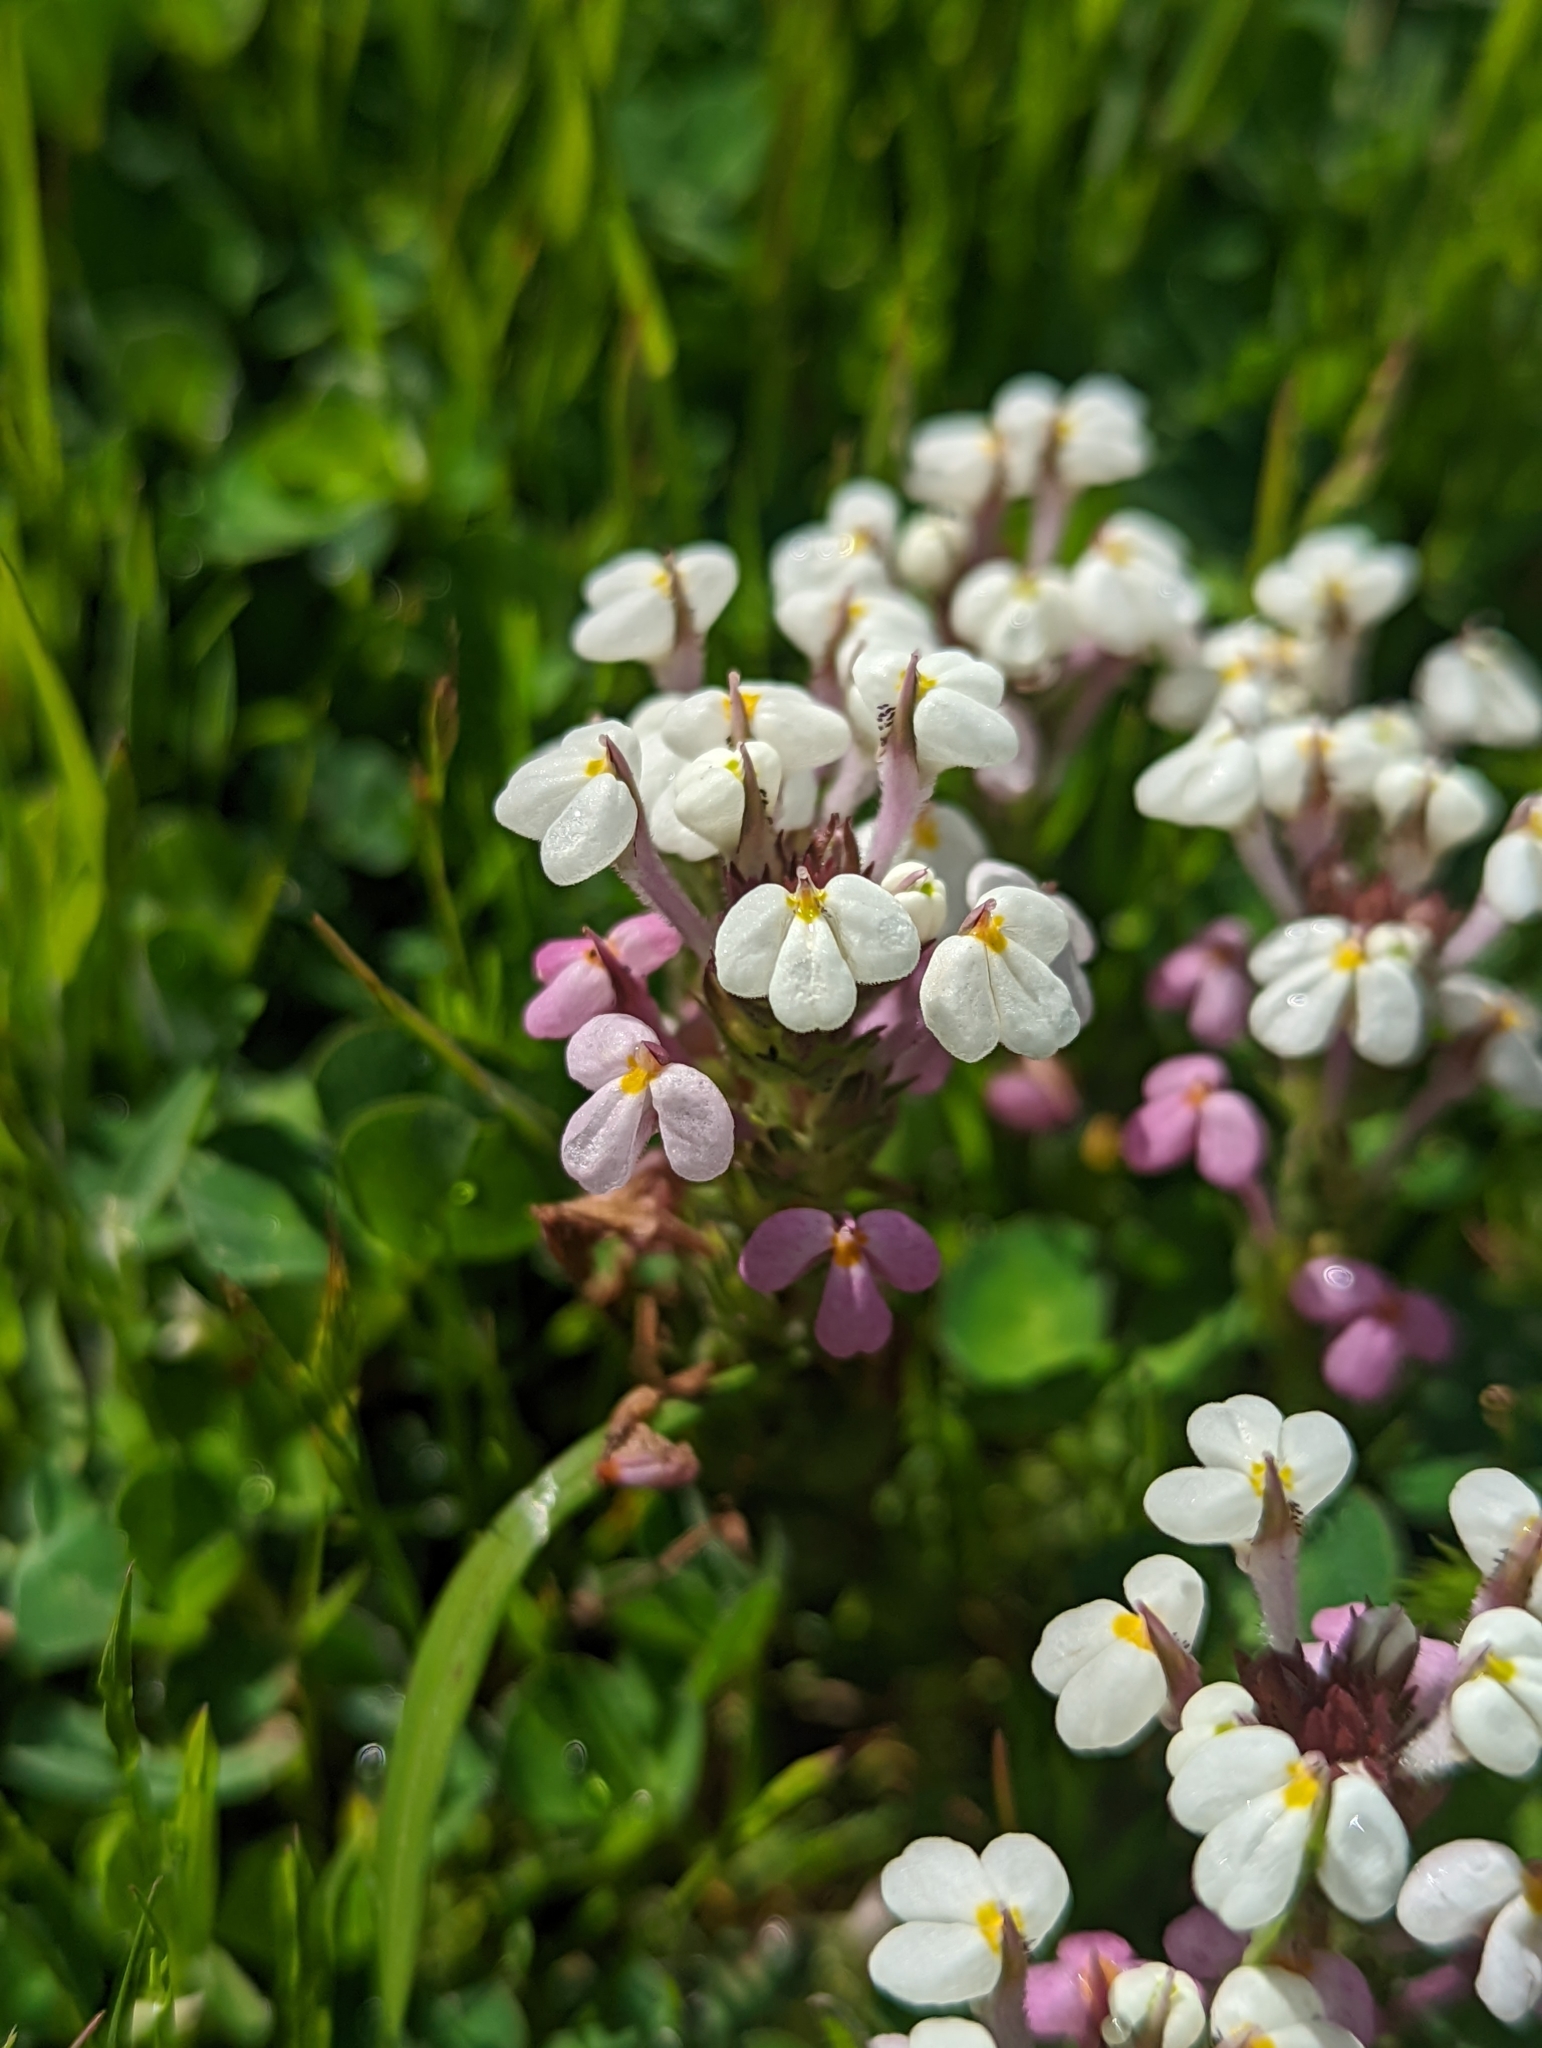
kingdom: Plantae
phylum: Tracheophyta
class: Magnoliopsida
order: Lamiales
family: Orobanchaceae
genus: Triphysaria
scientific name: Triphysaria versicolor
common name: Bearded false owl-clover
